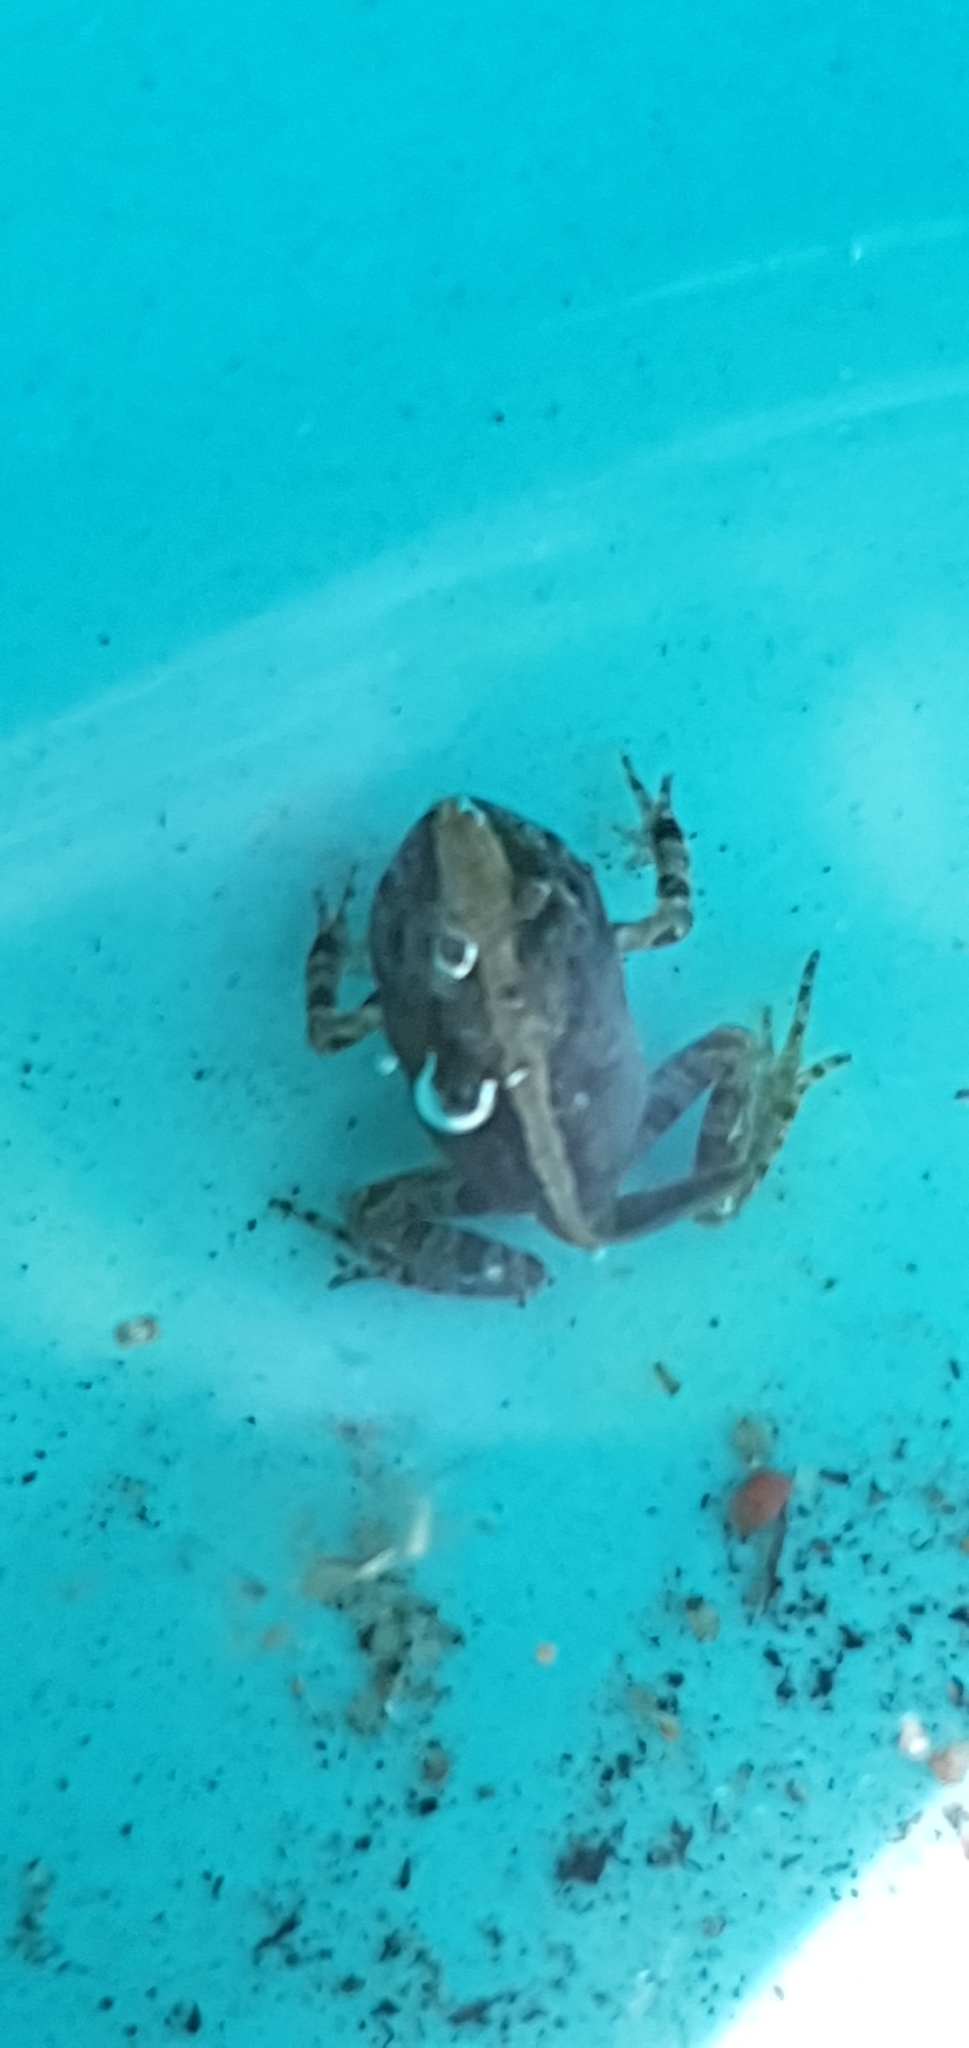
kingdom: Animalia
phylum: Chordata
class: Amphibia
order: Anura
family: Limnodynastidae
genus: Platyplectrum
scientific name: Platyplectrum ornatum
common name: Ornate burrowing frog
